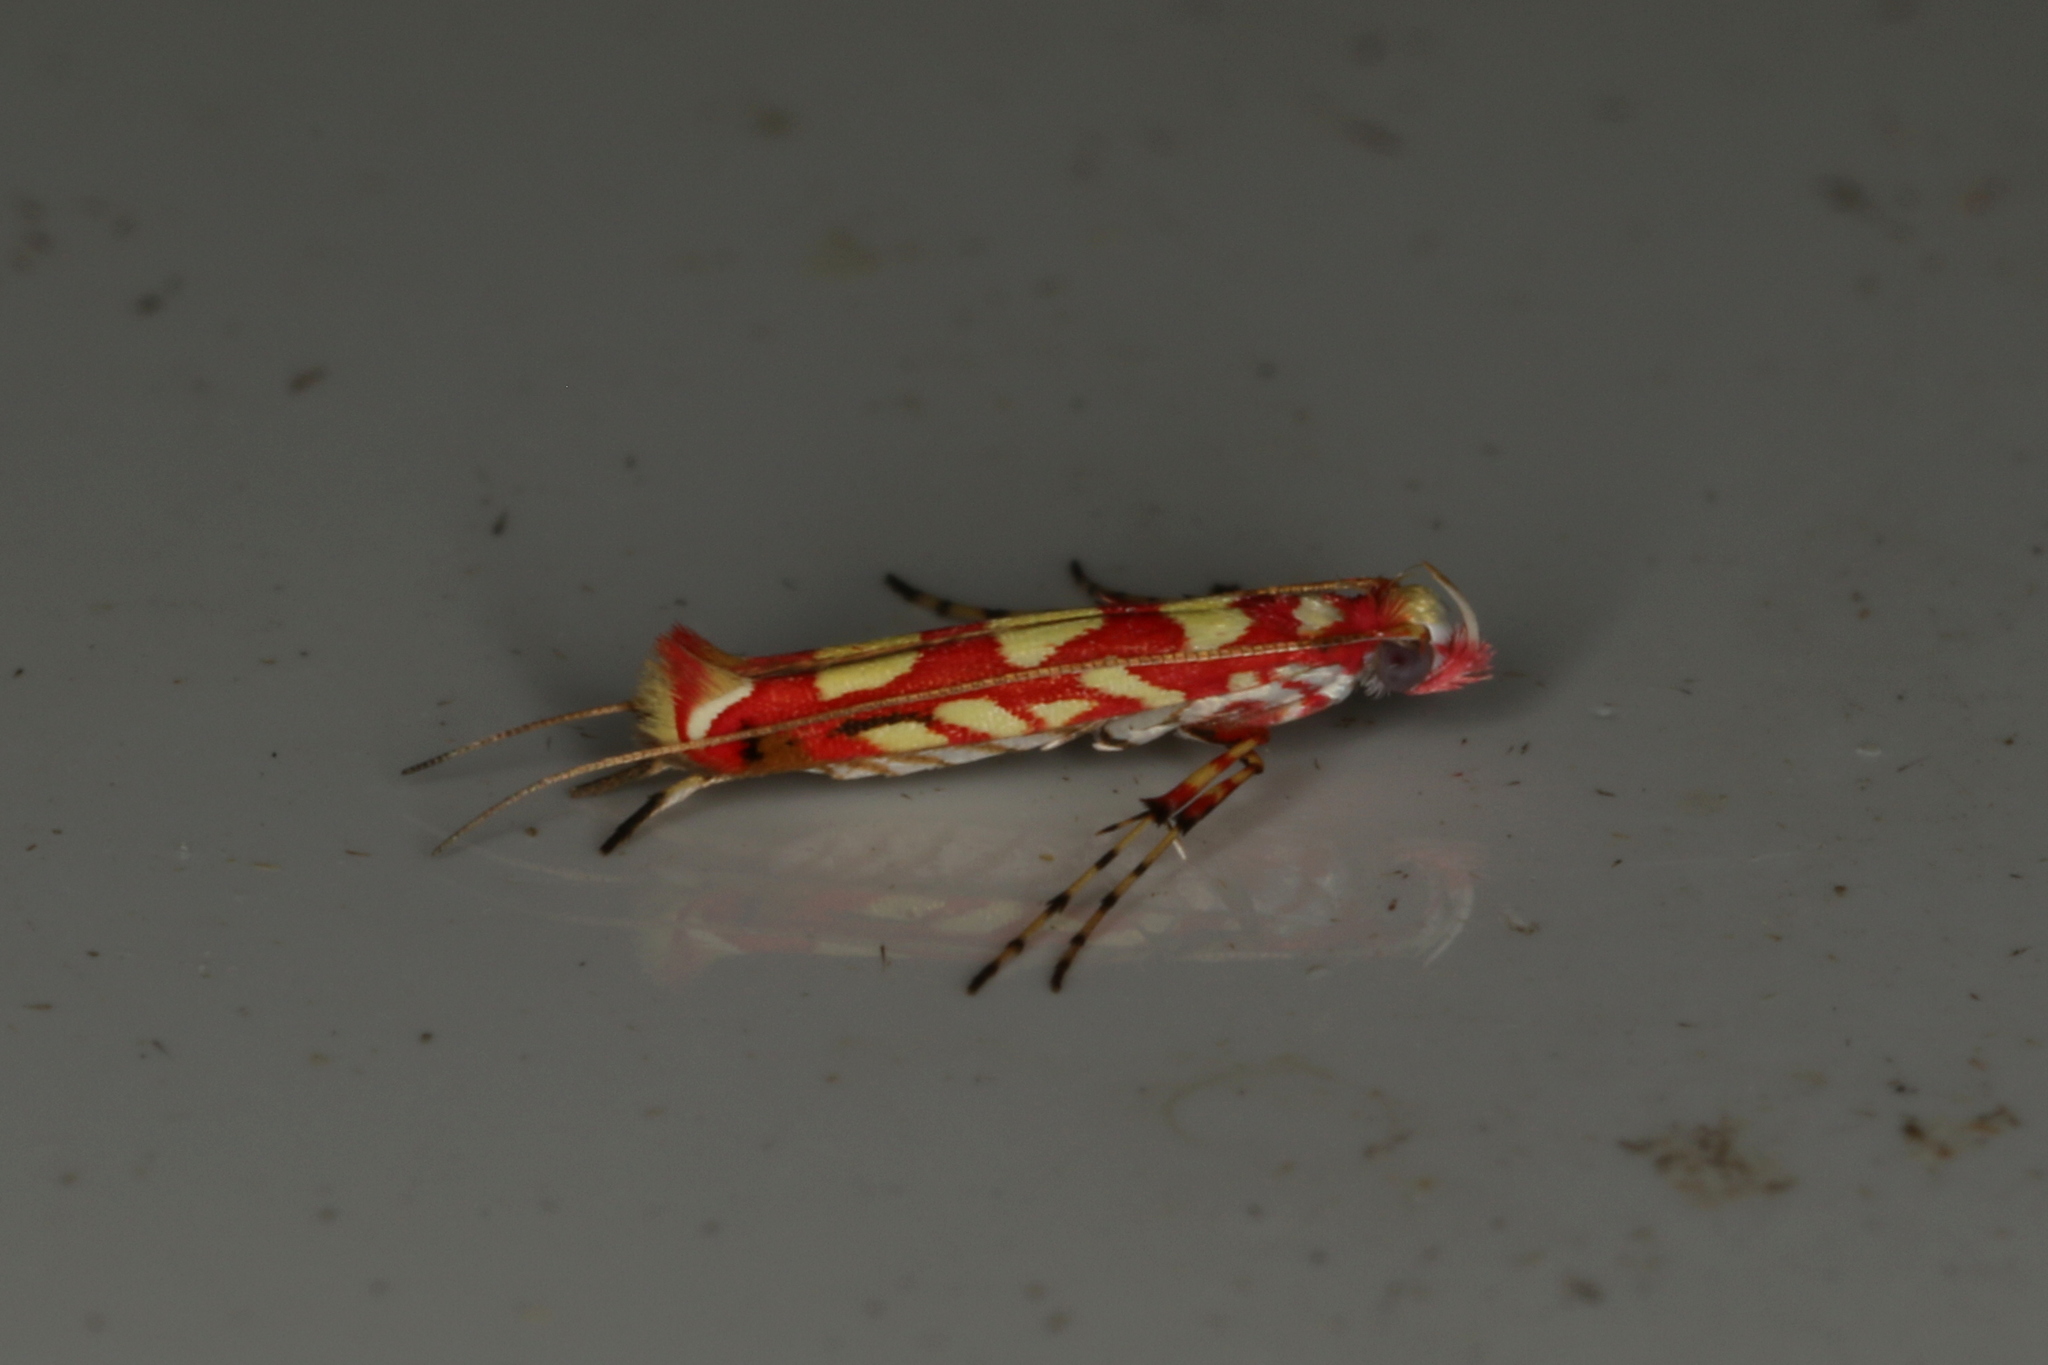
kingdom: Animalia
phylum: Arthropoda
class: Insecta
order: Lepidoptera
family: Gracillariidae
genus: Macarostola
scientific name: Macarostola ageta
